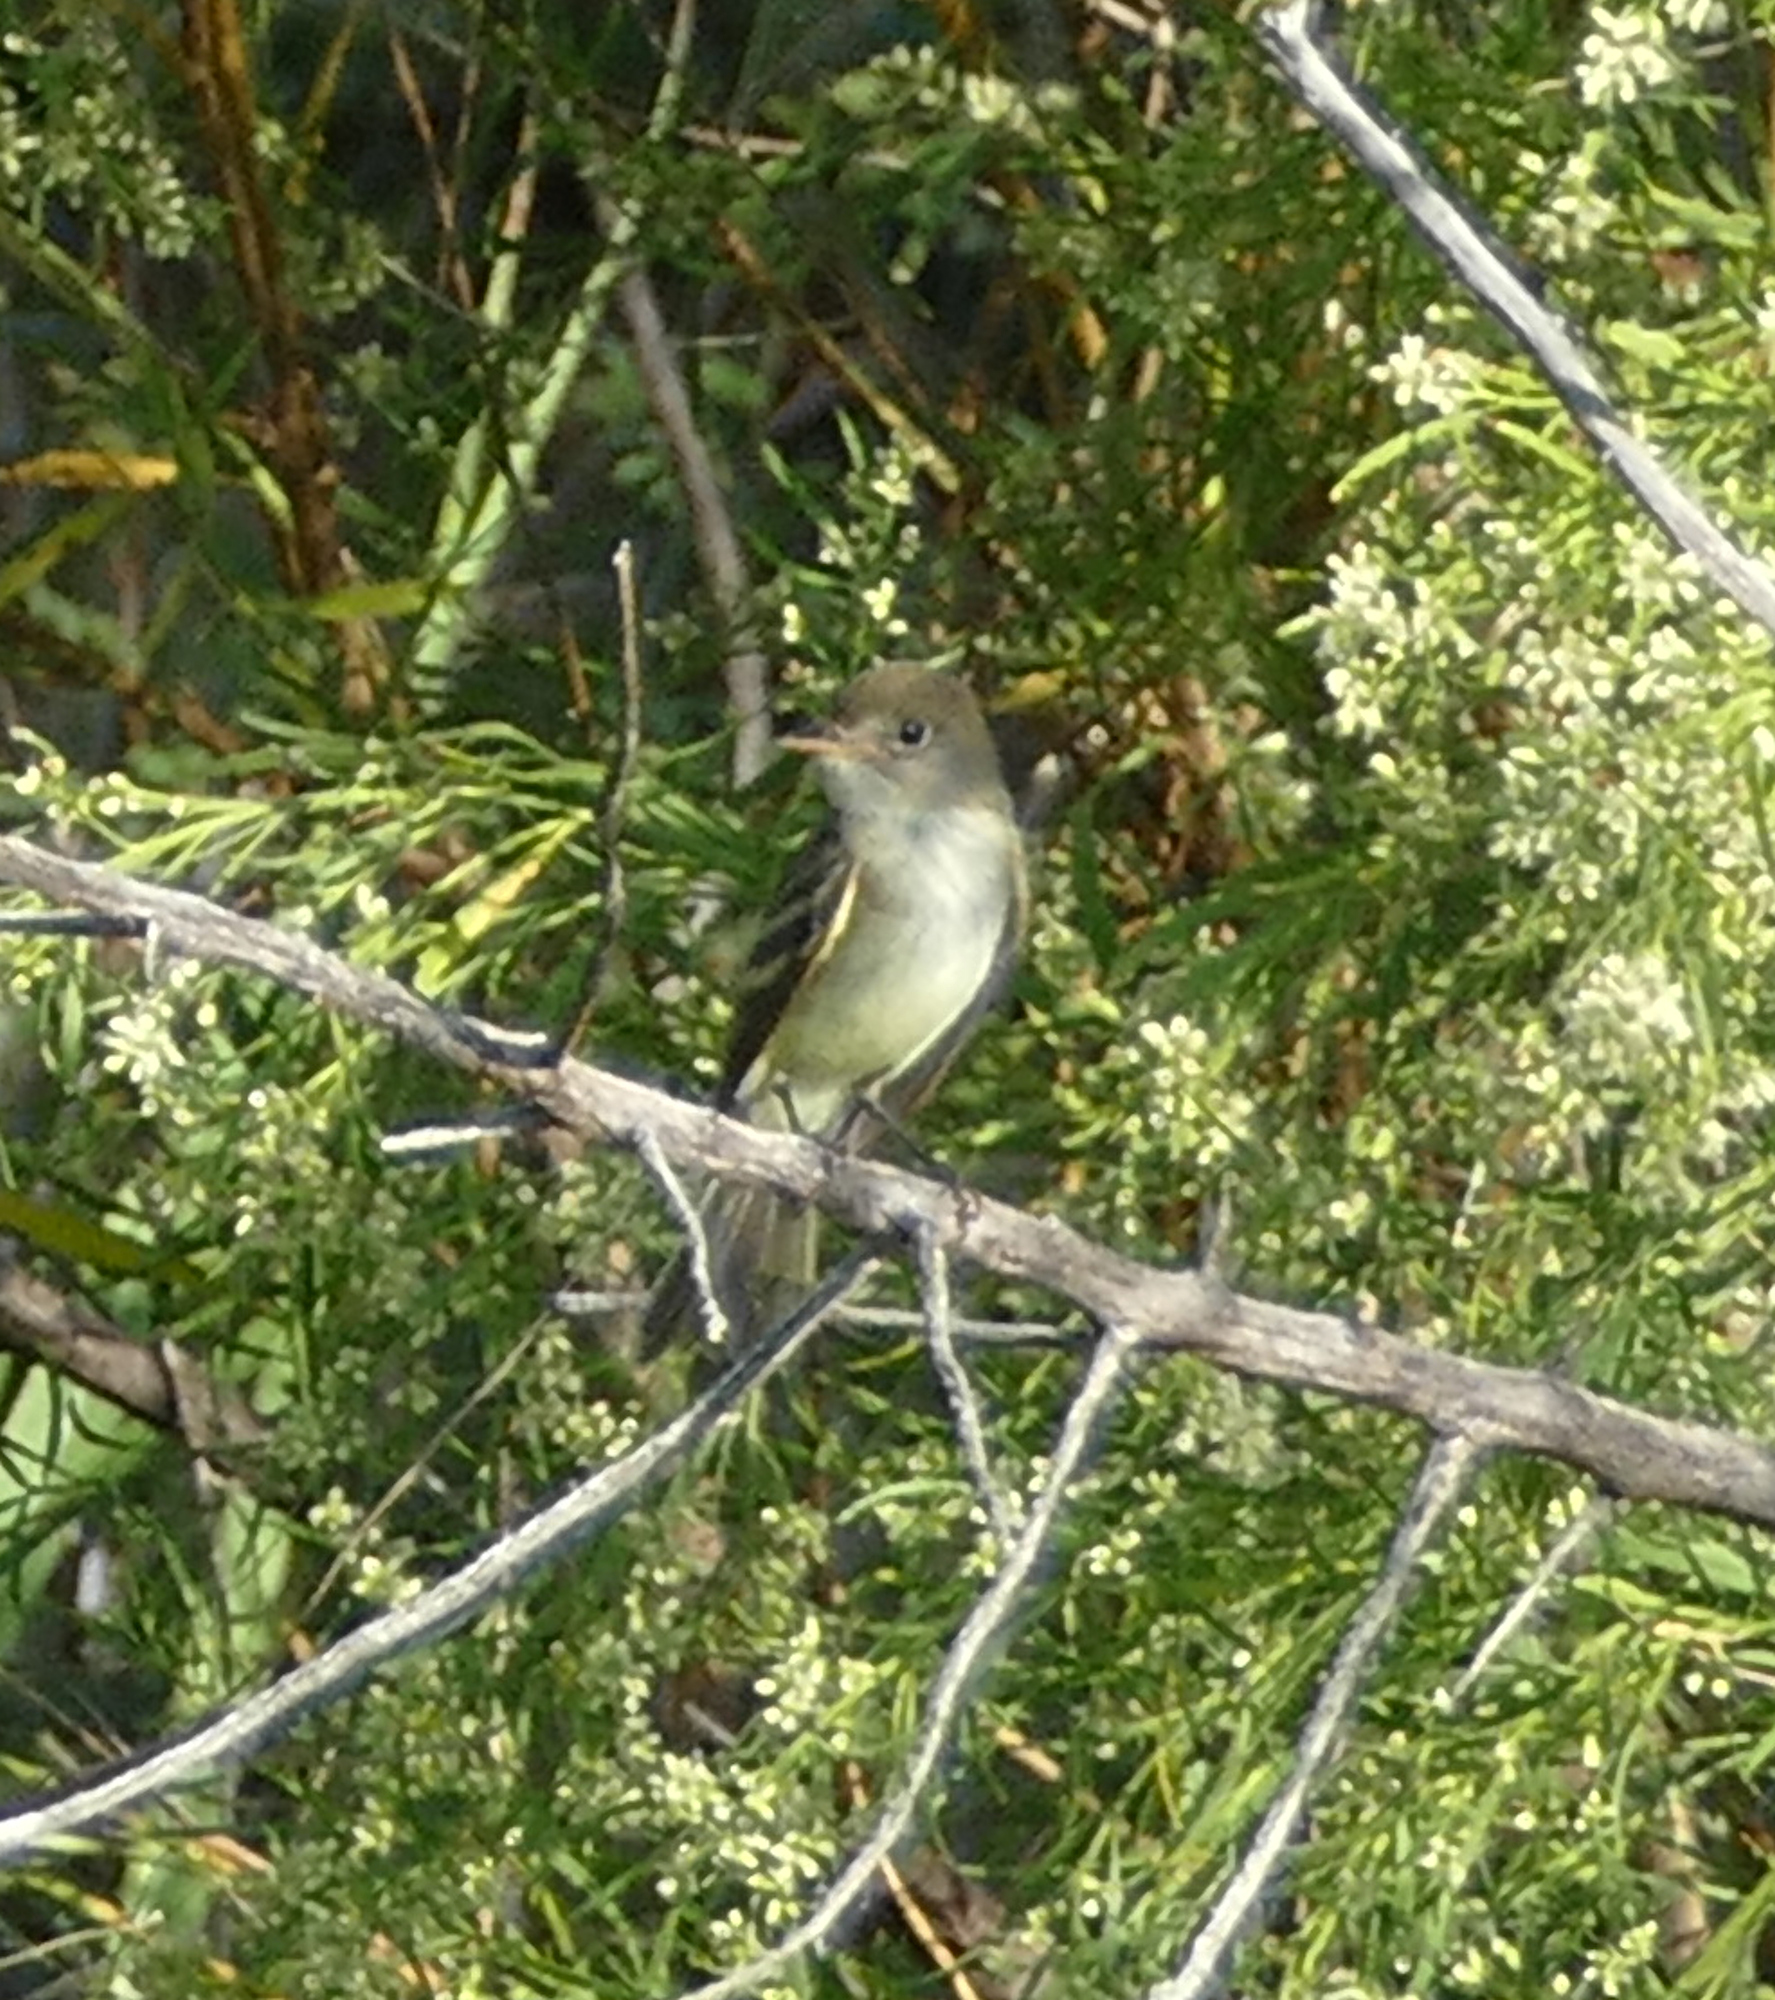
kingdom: Animalia
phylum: Chordata
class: Aves
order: Passeriformes
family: Tyrannidae
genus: Empidonax
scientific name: Empidonax traillii
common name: Willow flycatcher
